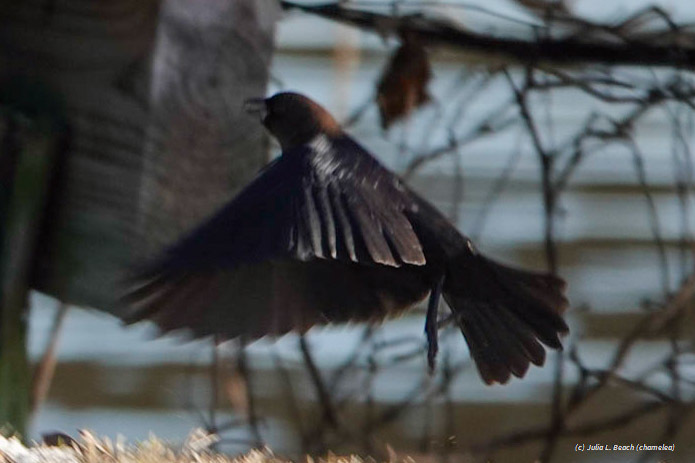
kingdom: Animalia
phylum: Chordata
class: Aves
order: Passeriformes
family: Icteridae
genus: Molothrus
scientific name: Molothrus ater
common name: Brown-headed cowbird
